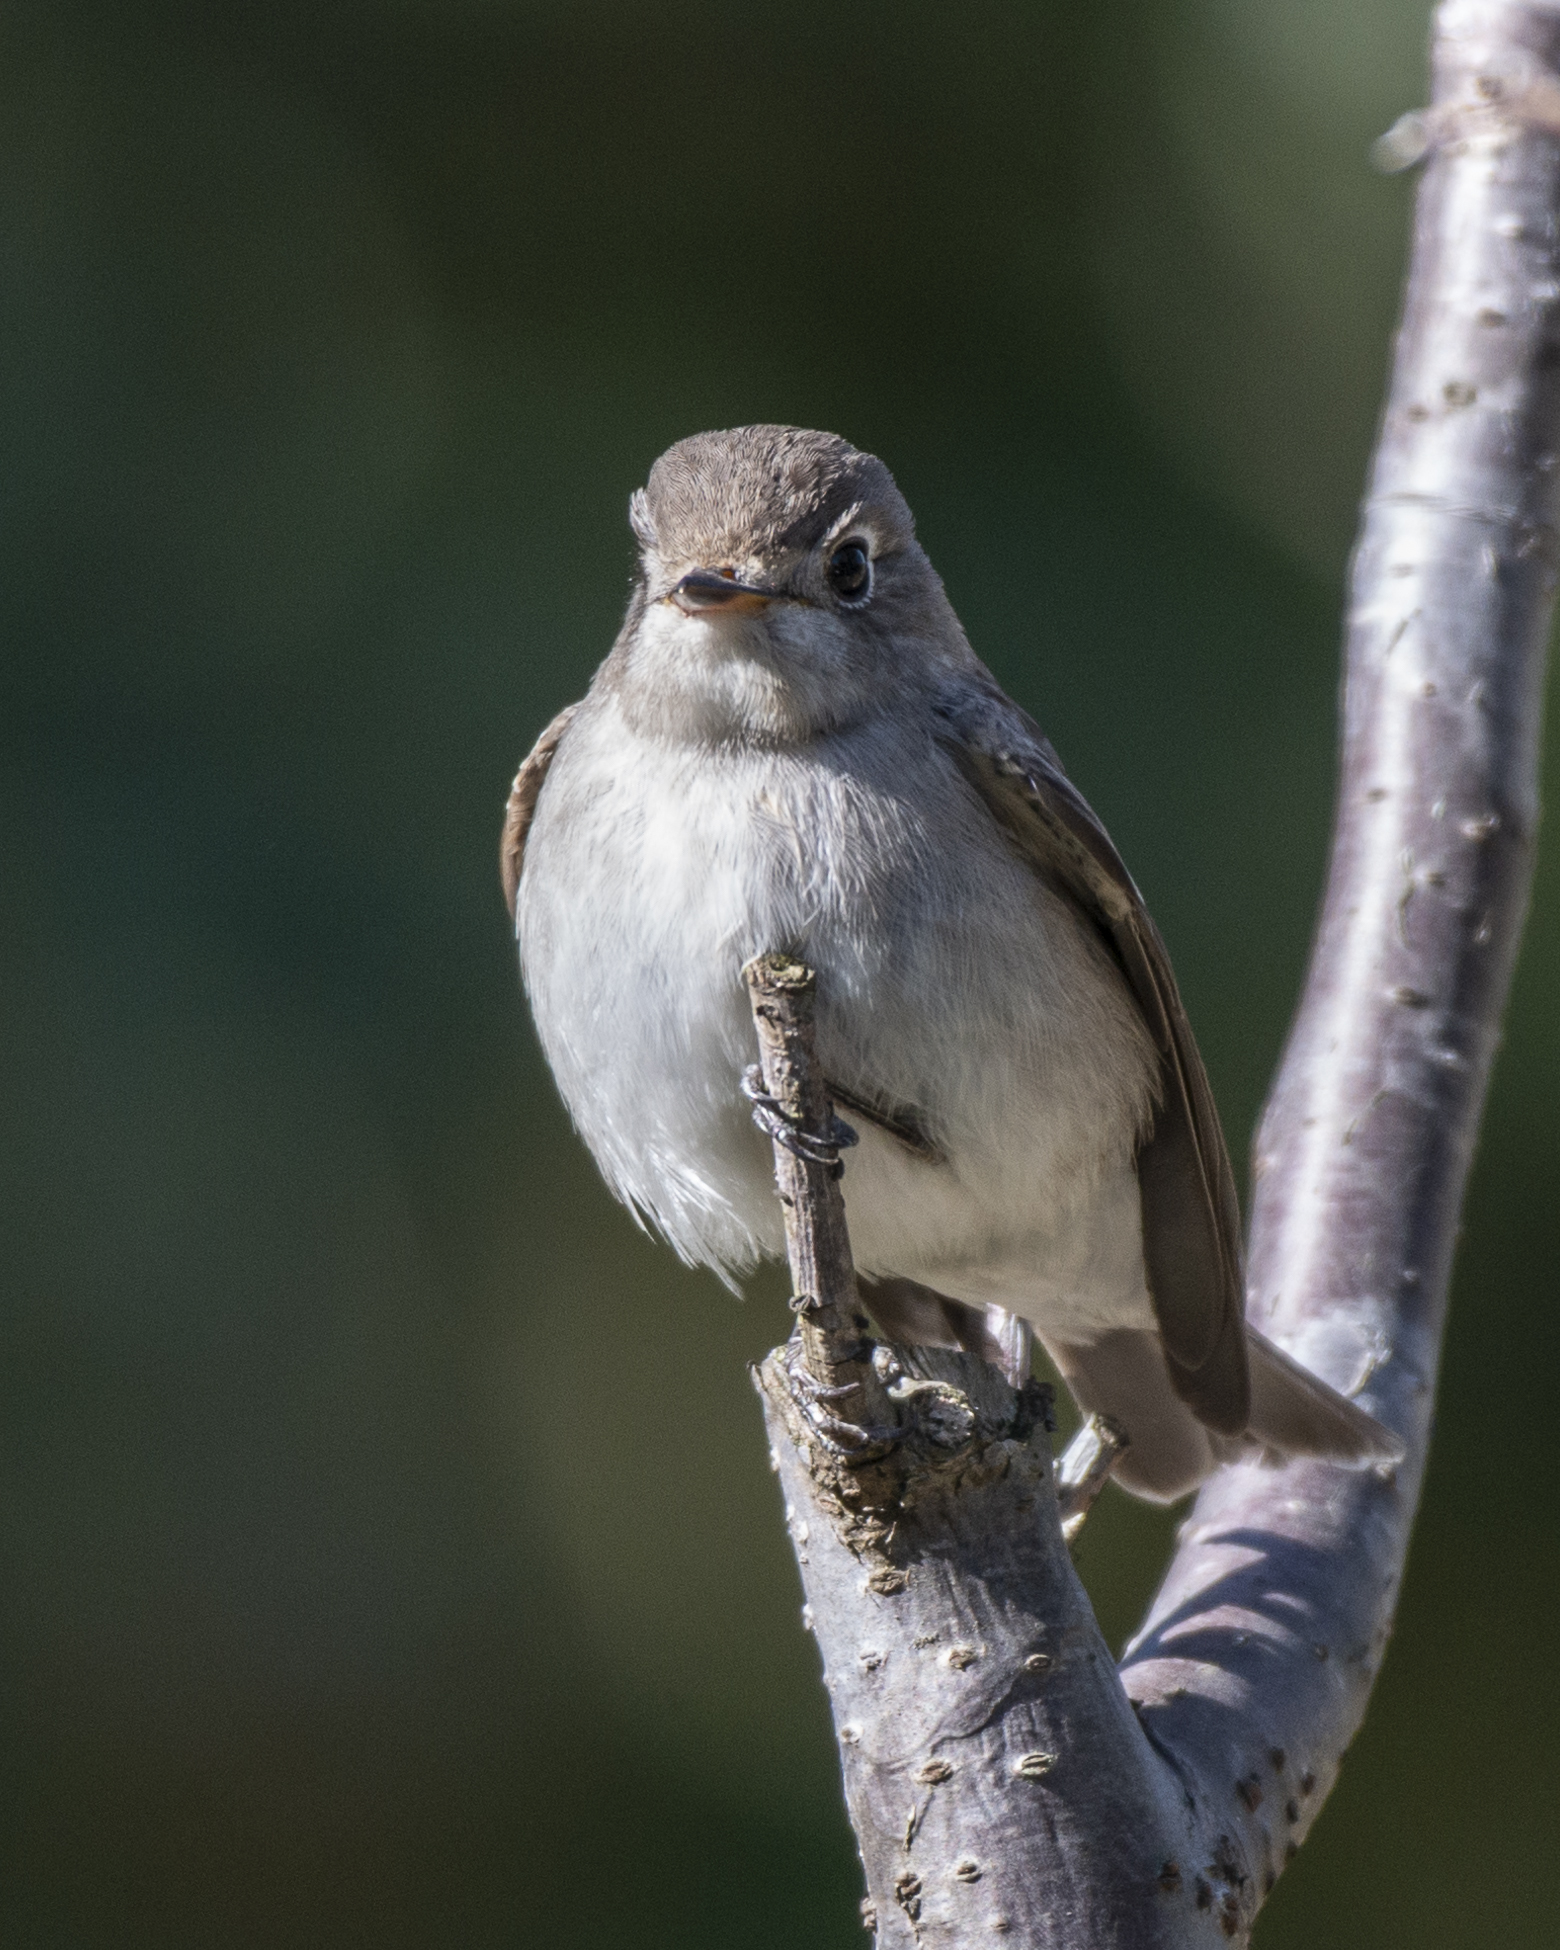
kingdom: Animalia
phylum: Chordata
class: Aves
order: Passeriformes
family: Muscicapidae
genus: Muscicapa
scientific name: Muscicapa latirostris
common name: Asian brown flycatcher
